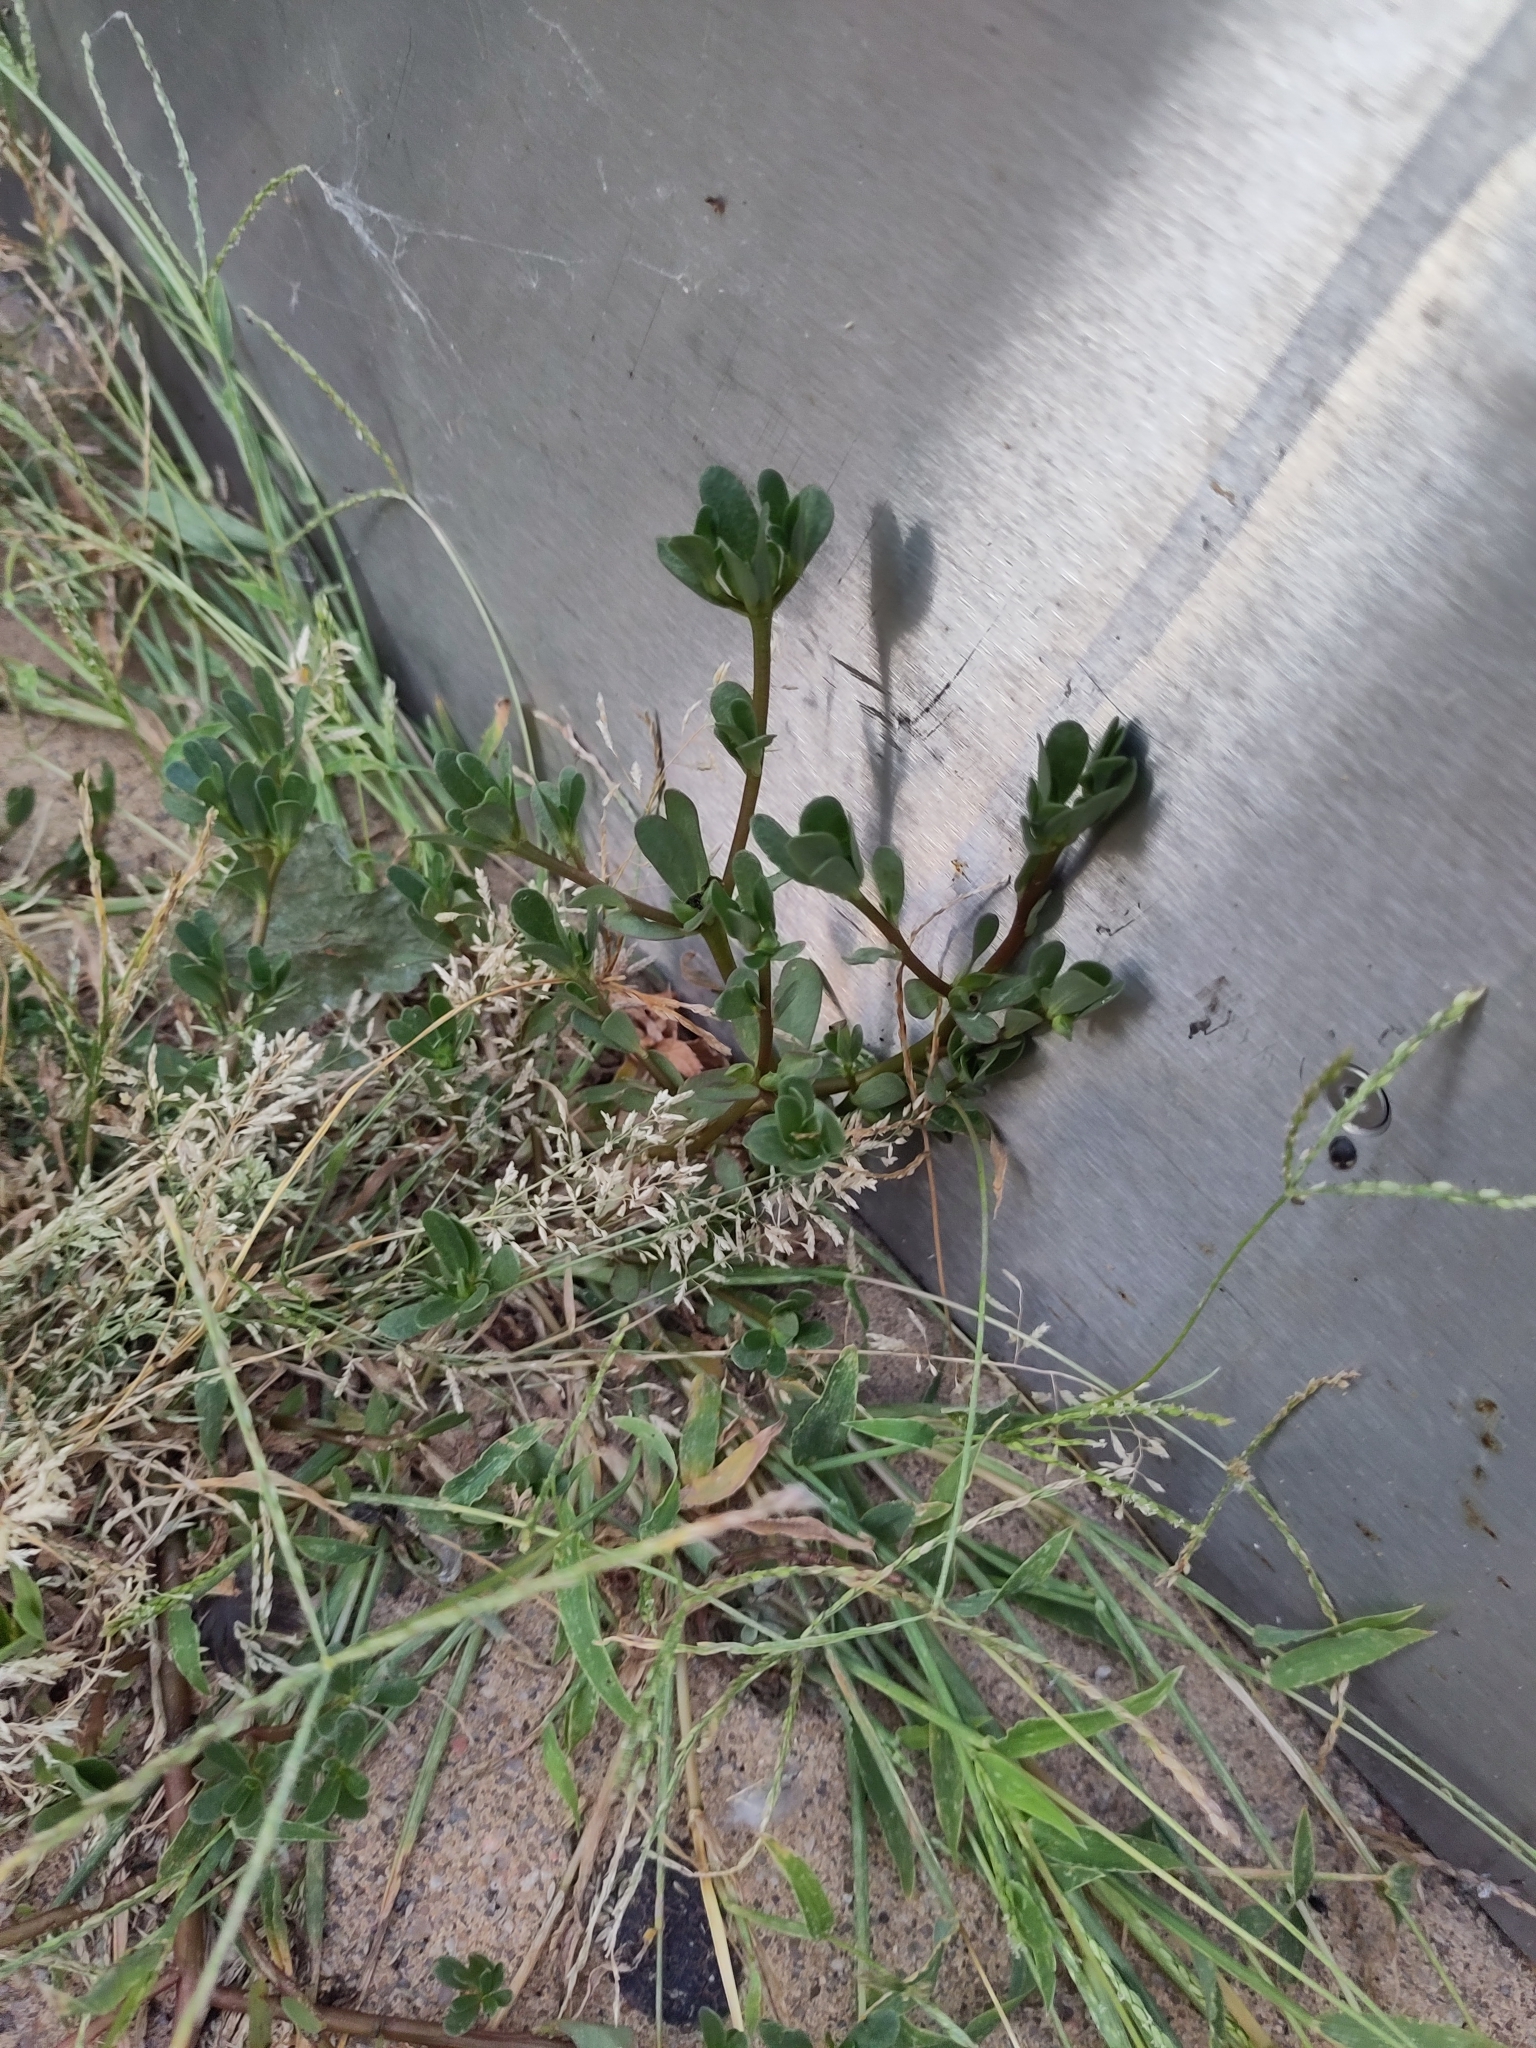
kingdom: Plantae
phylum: Tracheophyta
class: Magnoliopsida
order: Caryophyllales
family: Portulacaceae
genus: Portulaca
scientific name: Portulaca oleracea
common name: Common purslane
